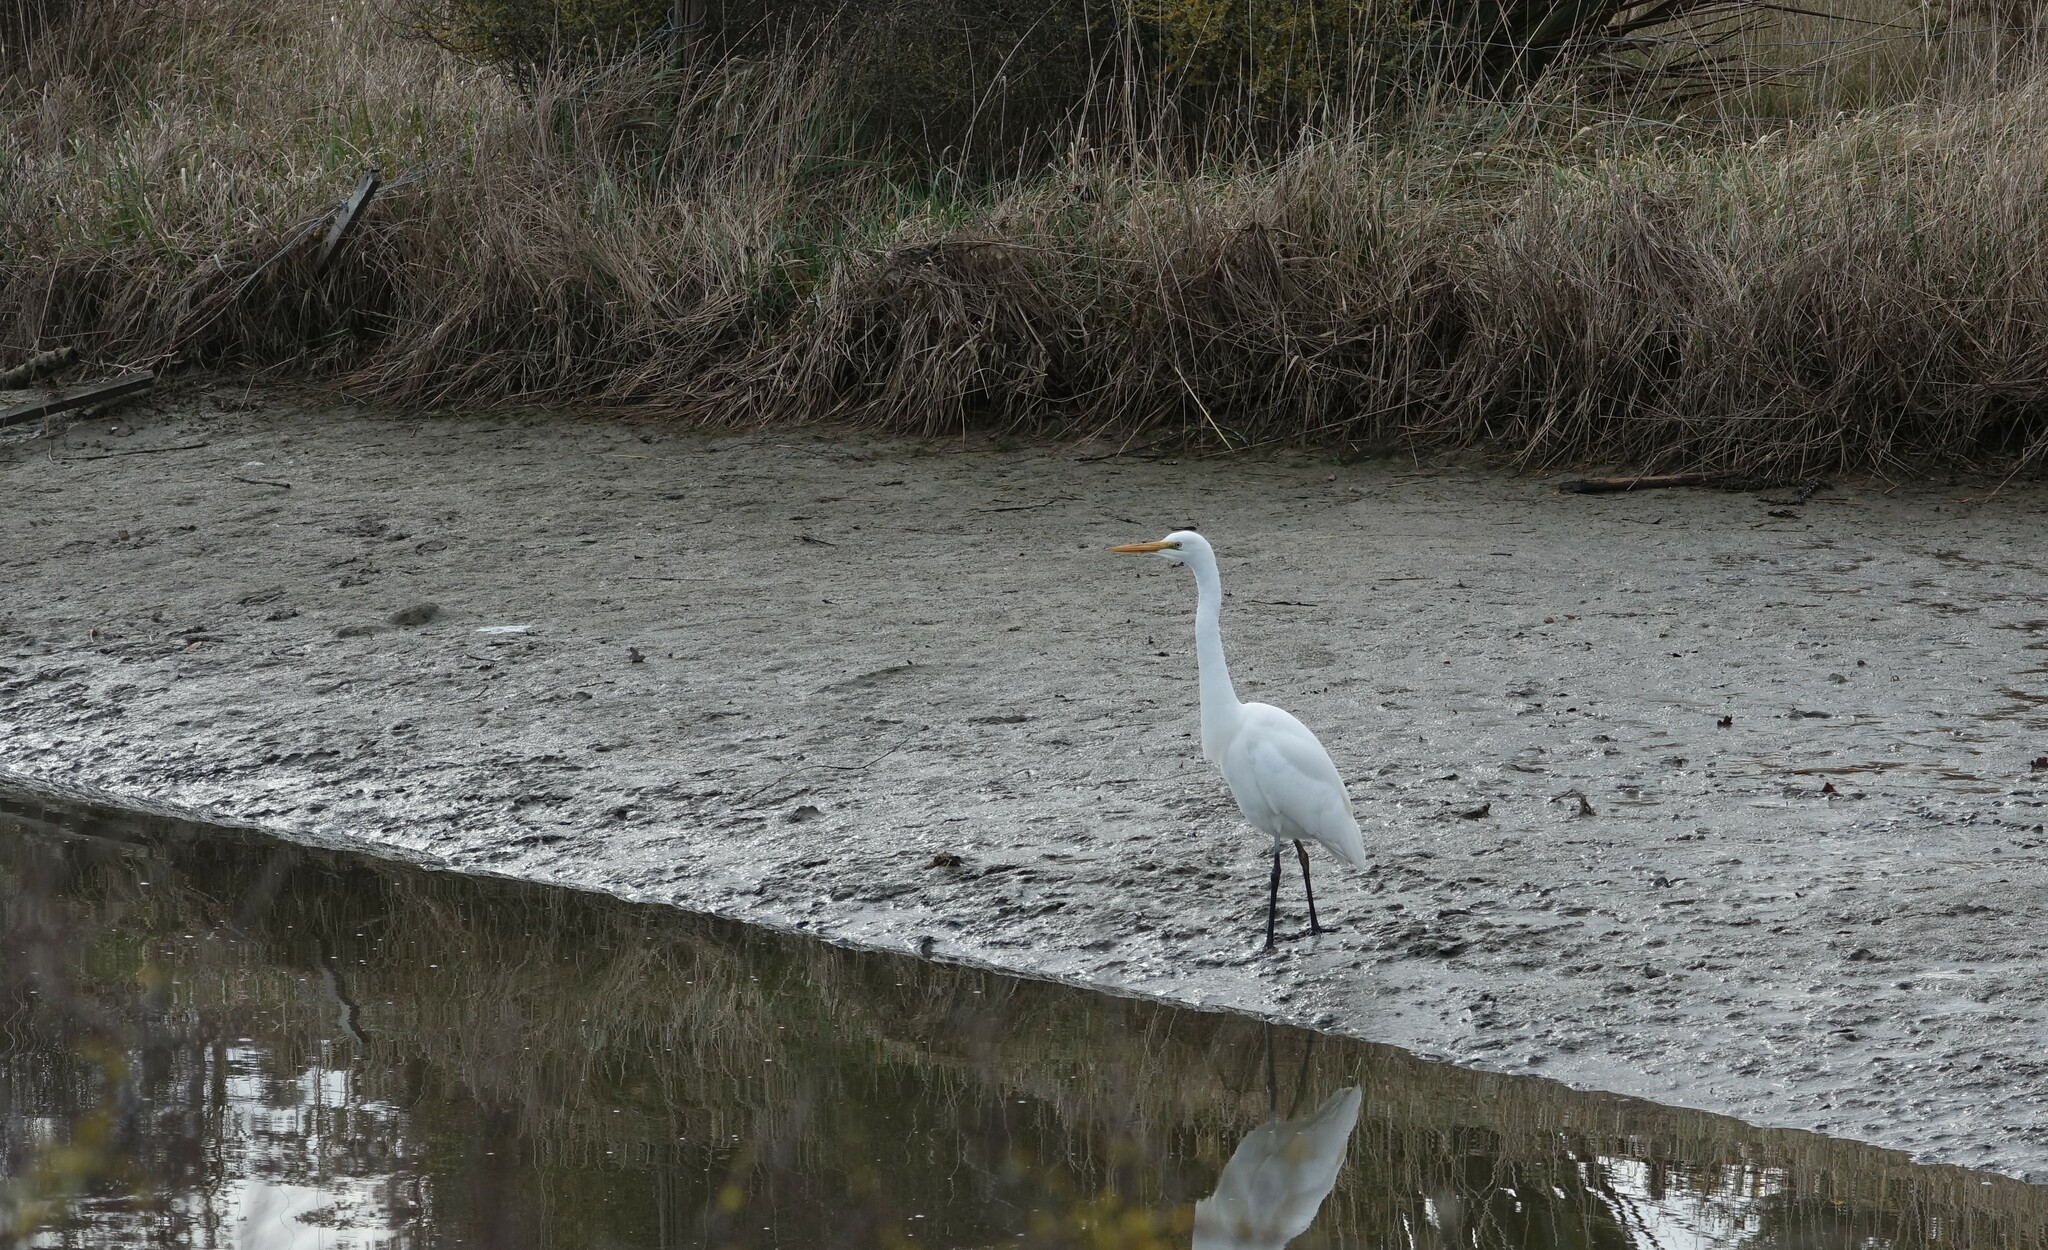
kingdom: Animalia
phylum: Chordata
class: Aves
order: Pelecaniformes
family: Ardeidae
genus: Ardea
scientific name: Ardea alba
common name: Great egret
